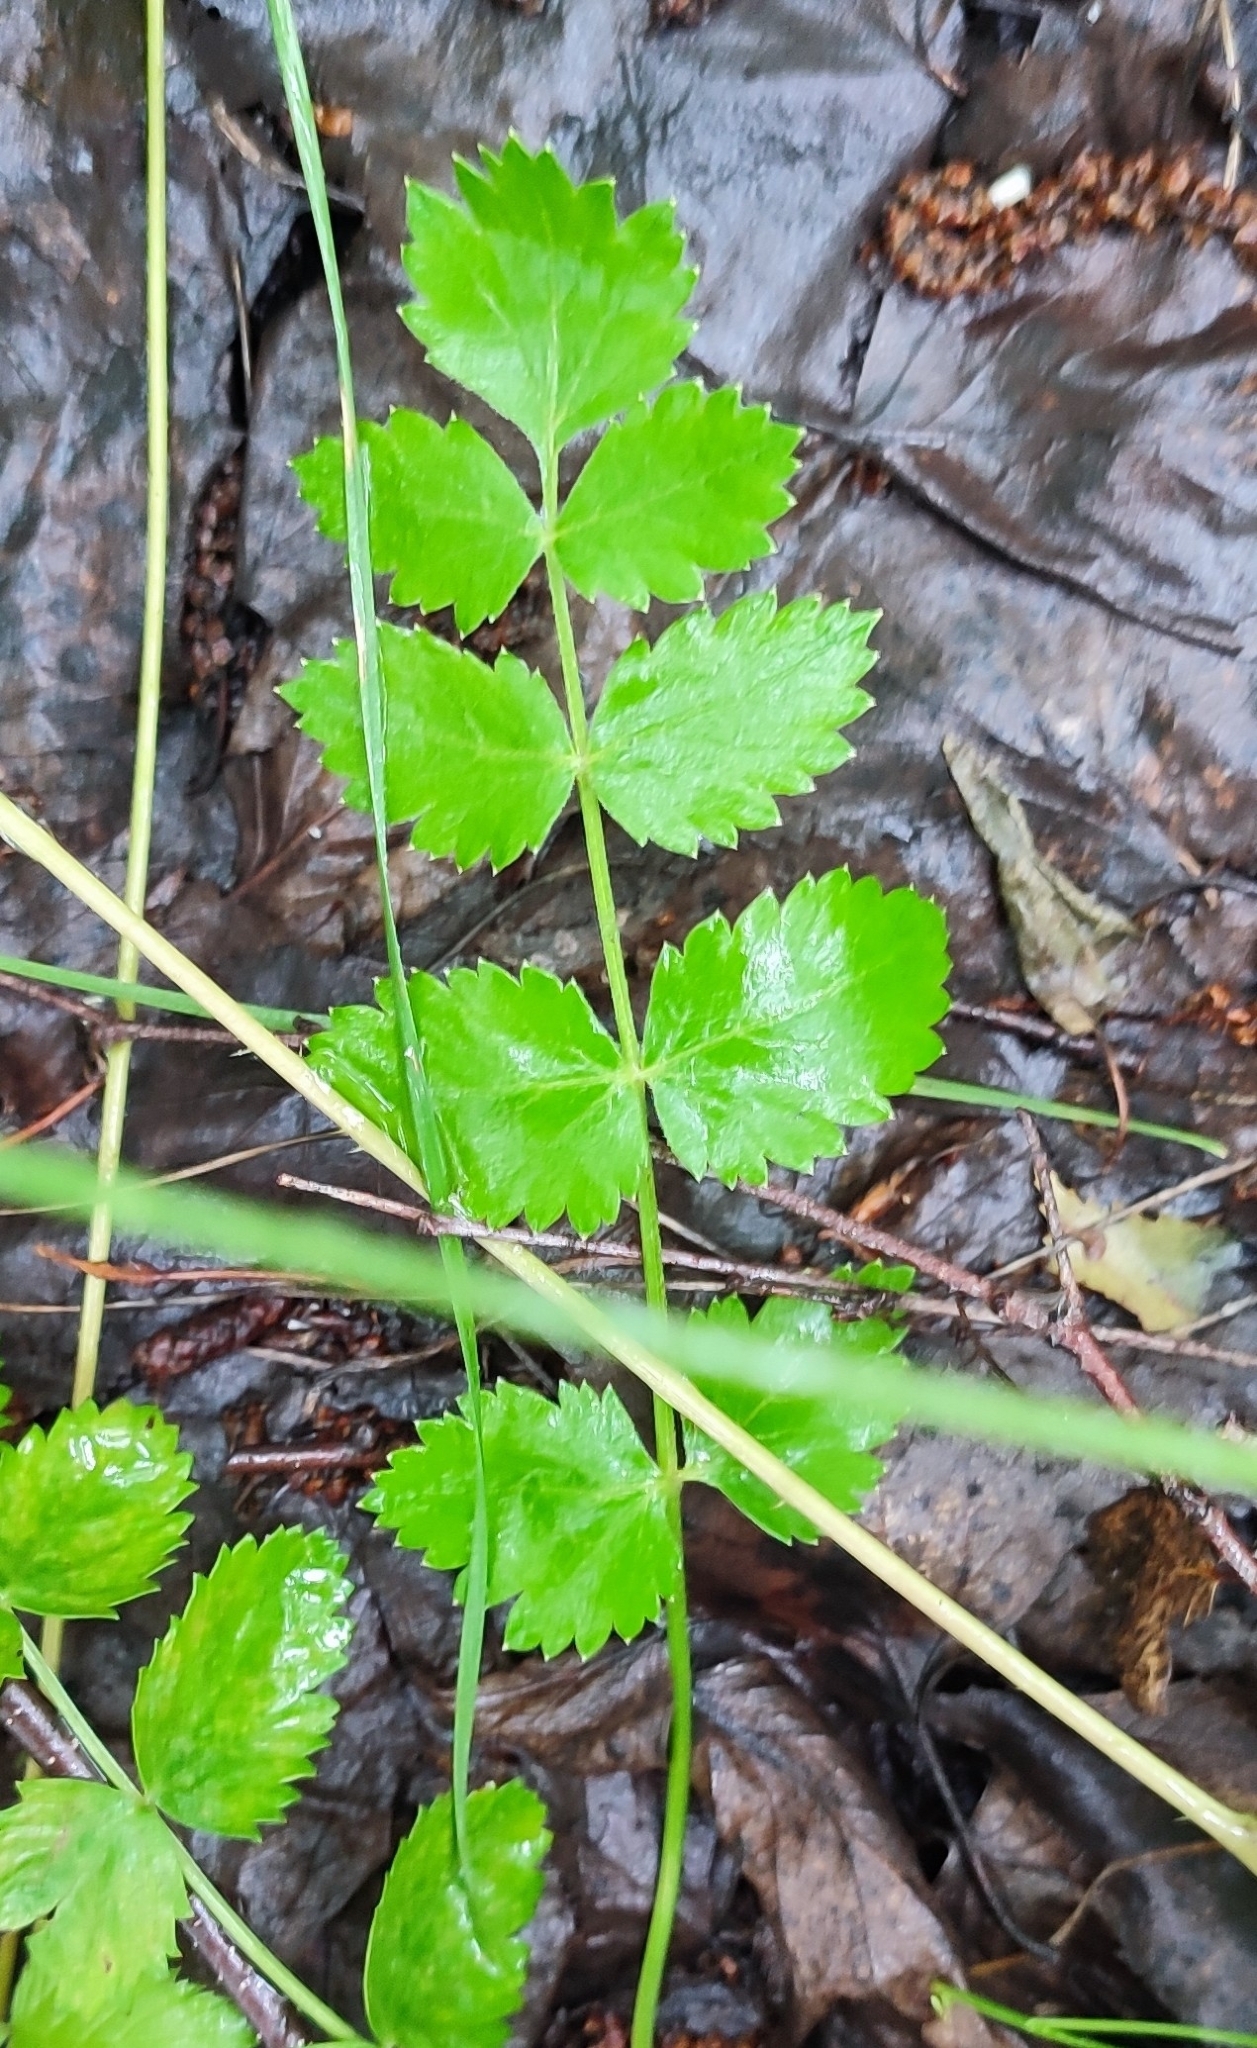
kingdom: Plantae
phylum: Tracheophyta
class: Magnoliopsida
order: Apiales
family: Apiaceae
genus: Pimpinella
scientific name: Pimpinella saxifraga
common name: Burnet-saxifrage
